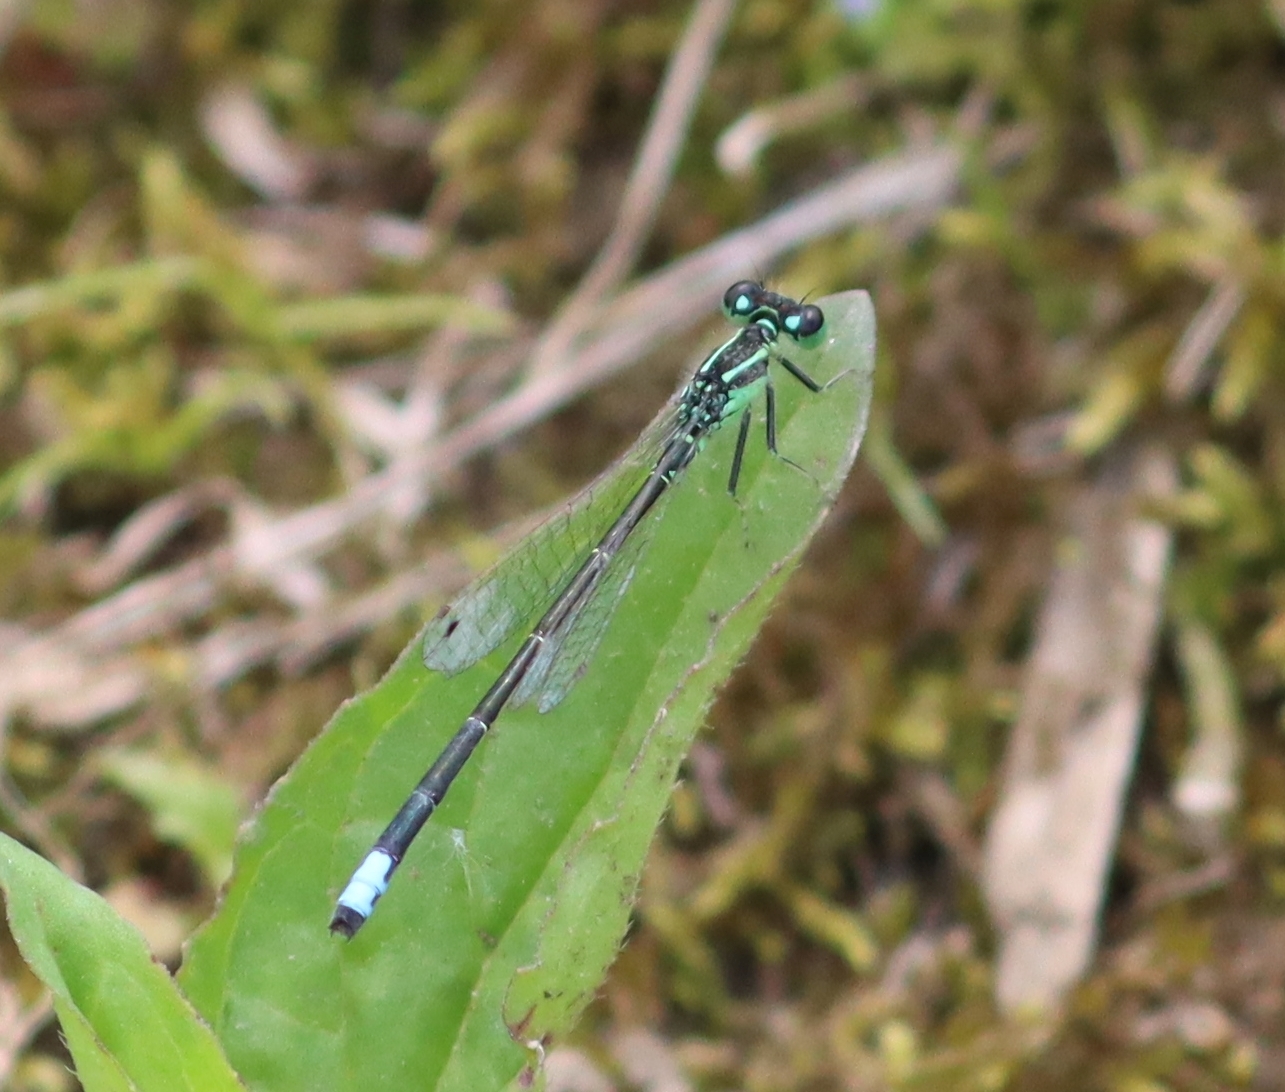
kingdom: Animalia
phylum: Arthropoda
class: Insecta
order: Odonata
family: Coenagrionidae
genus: Ischnura
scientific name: Ischnura verticalis
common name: Eastern forktail
